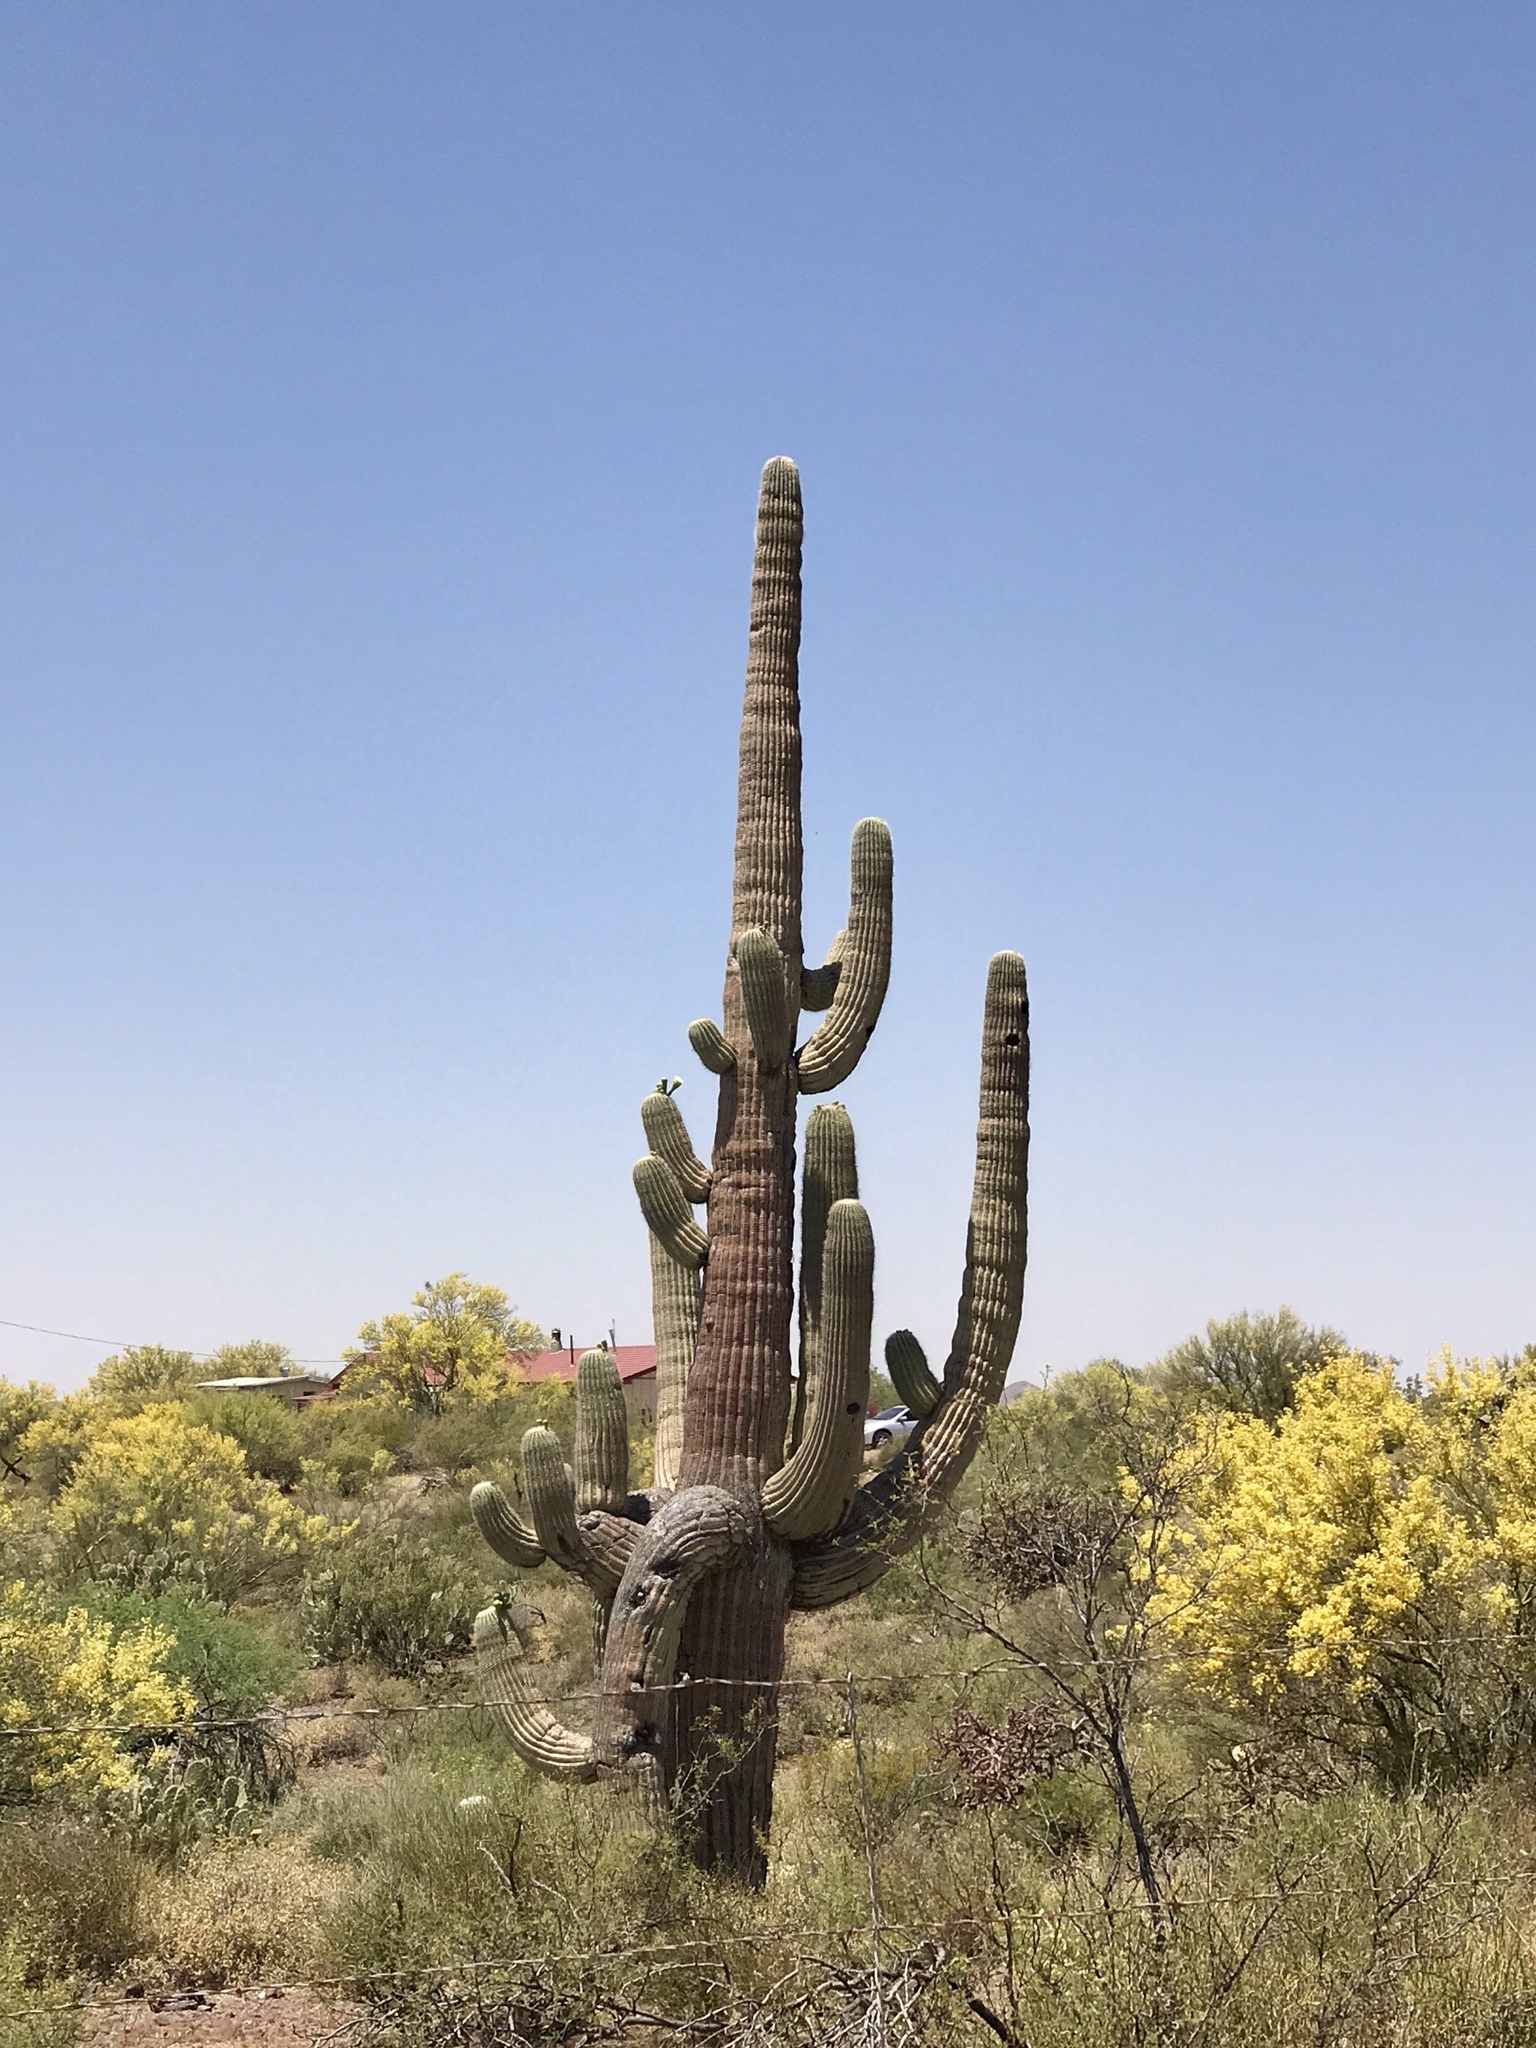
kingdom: Plantae
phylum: Tracheophyta
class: Magnoliopsida
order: Caryophyllales
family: Cactaceae
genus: Carnegiea
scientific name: Carnegiea gigantea
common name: Saguaro
